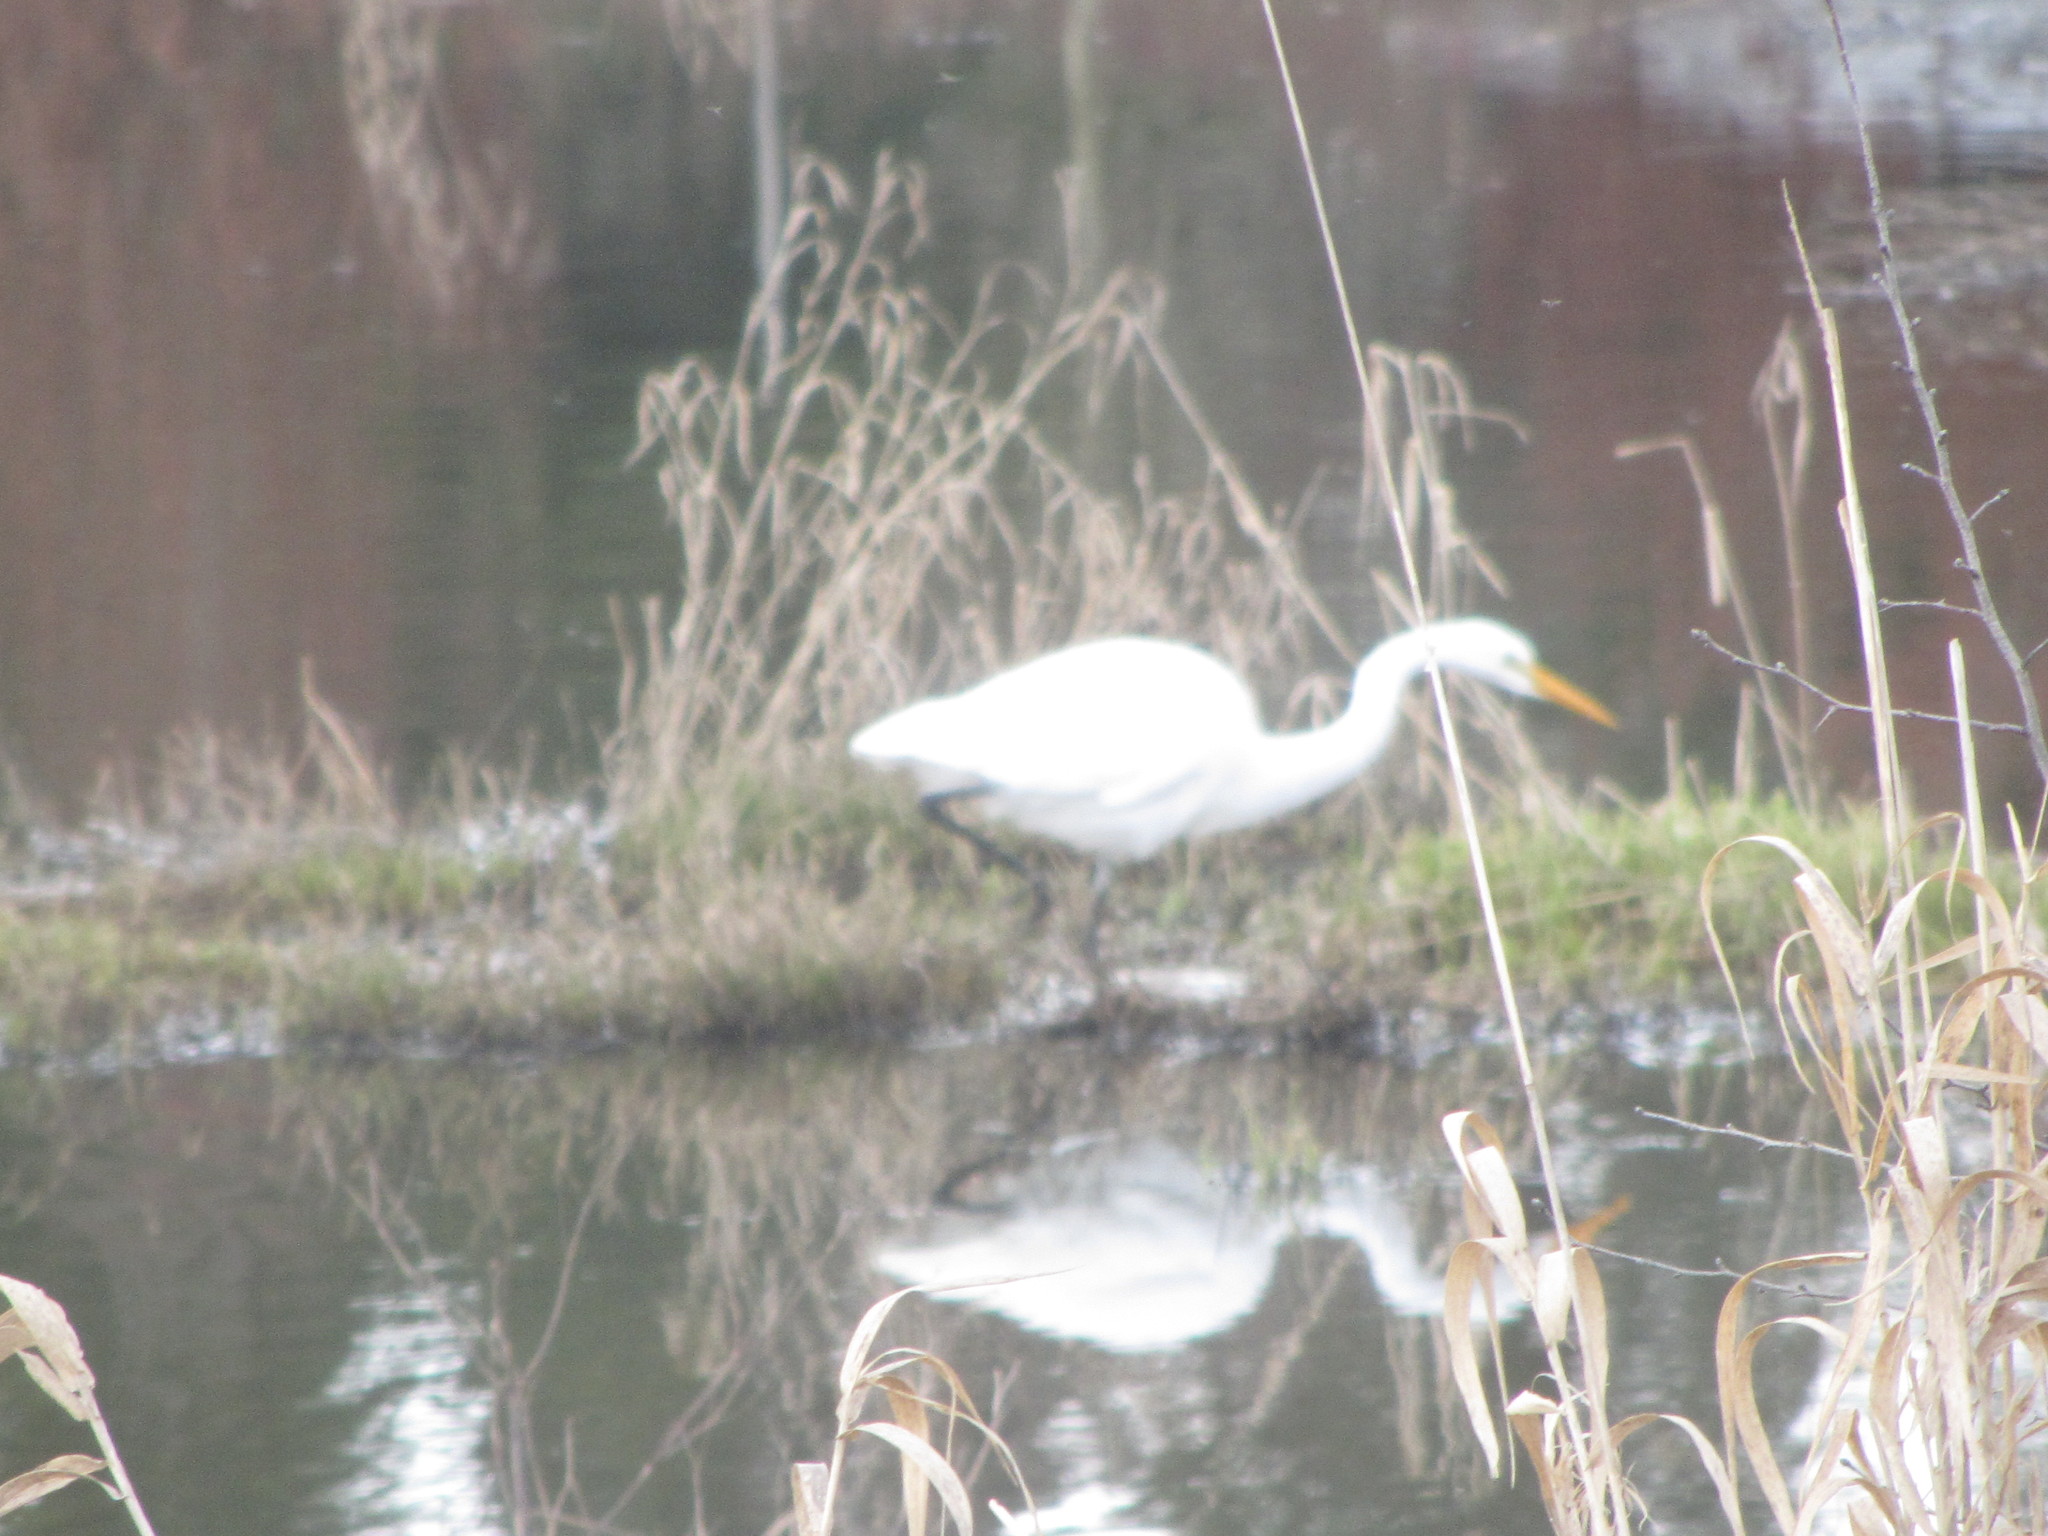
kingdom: Animalia
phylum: Chordata
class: Aves
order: Pelecaniformes
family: Ardeidae
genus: Ardea
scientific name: Ardea alba
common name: Great egret
